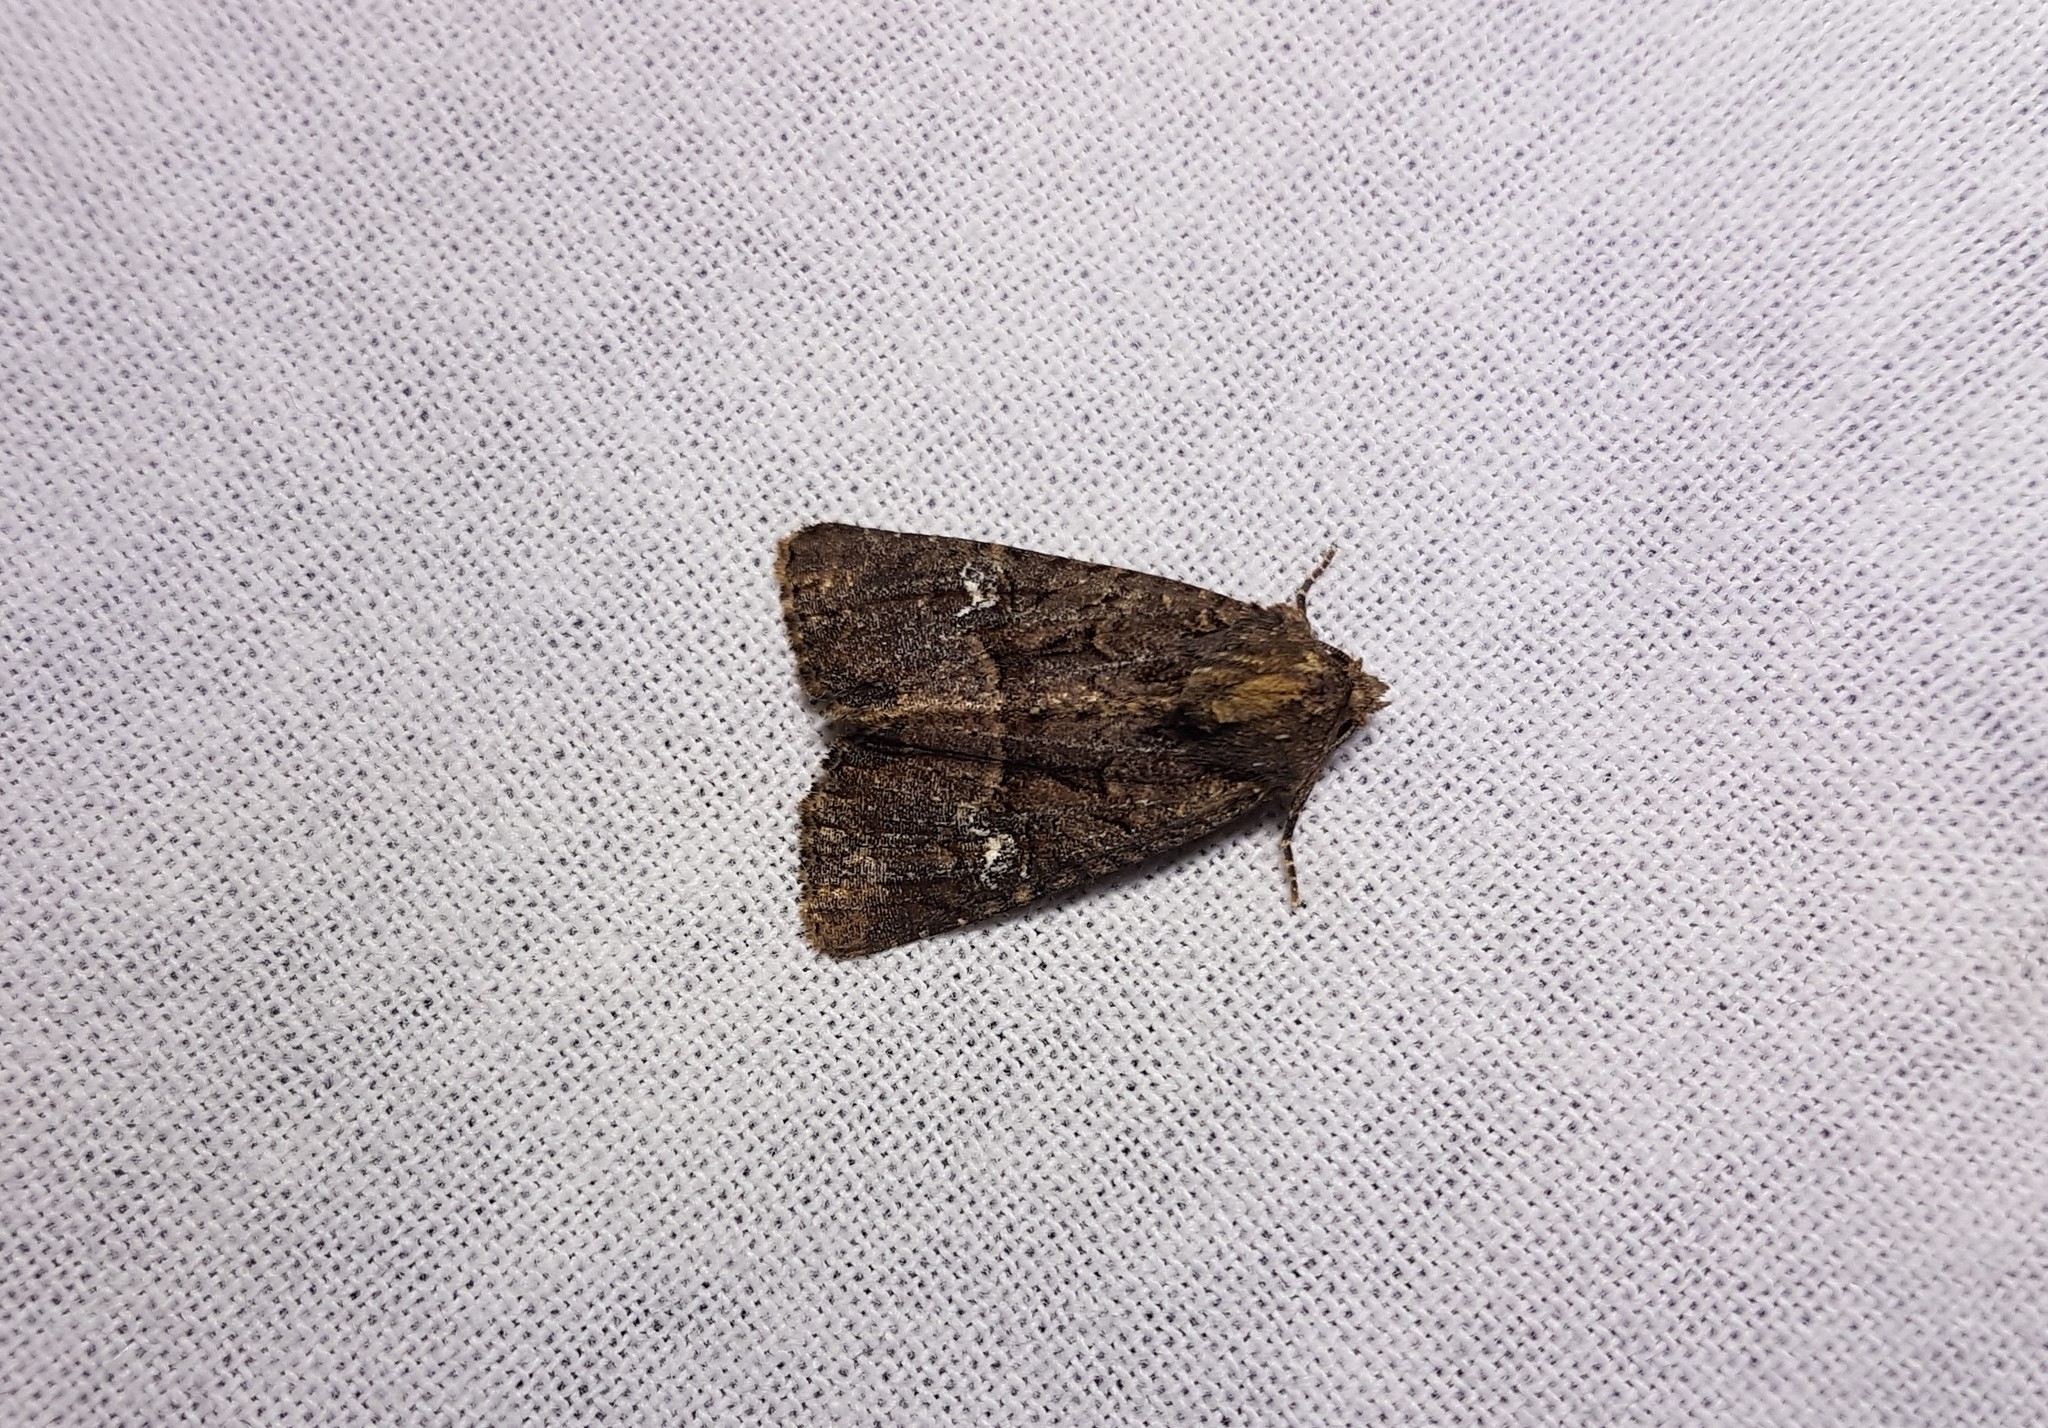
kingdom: Animalia
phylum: Arthropoda
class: Insecta
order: Lepidoptera
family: Noctuidae
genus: Mesapamea
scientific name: Mesapamea
